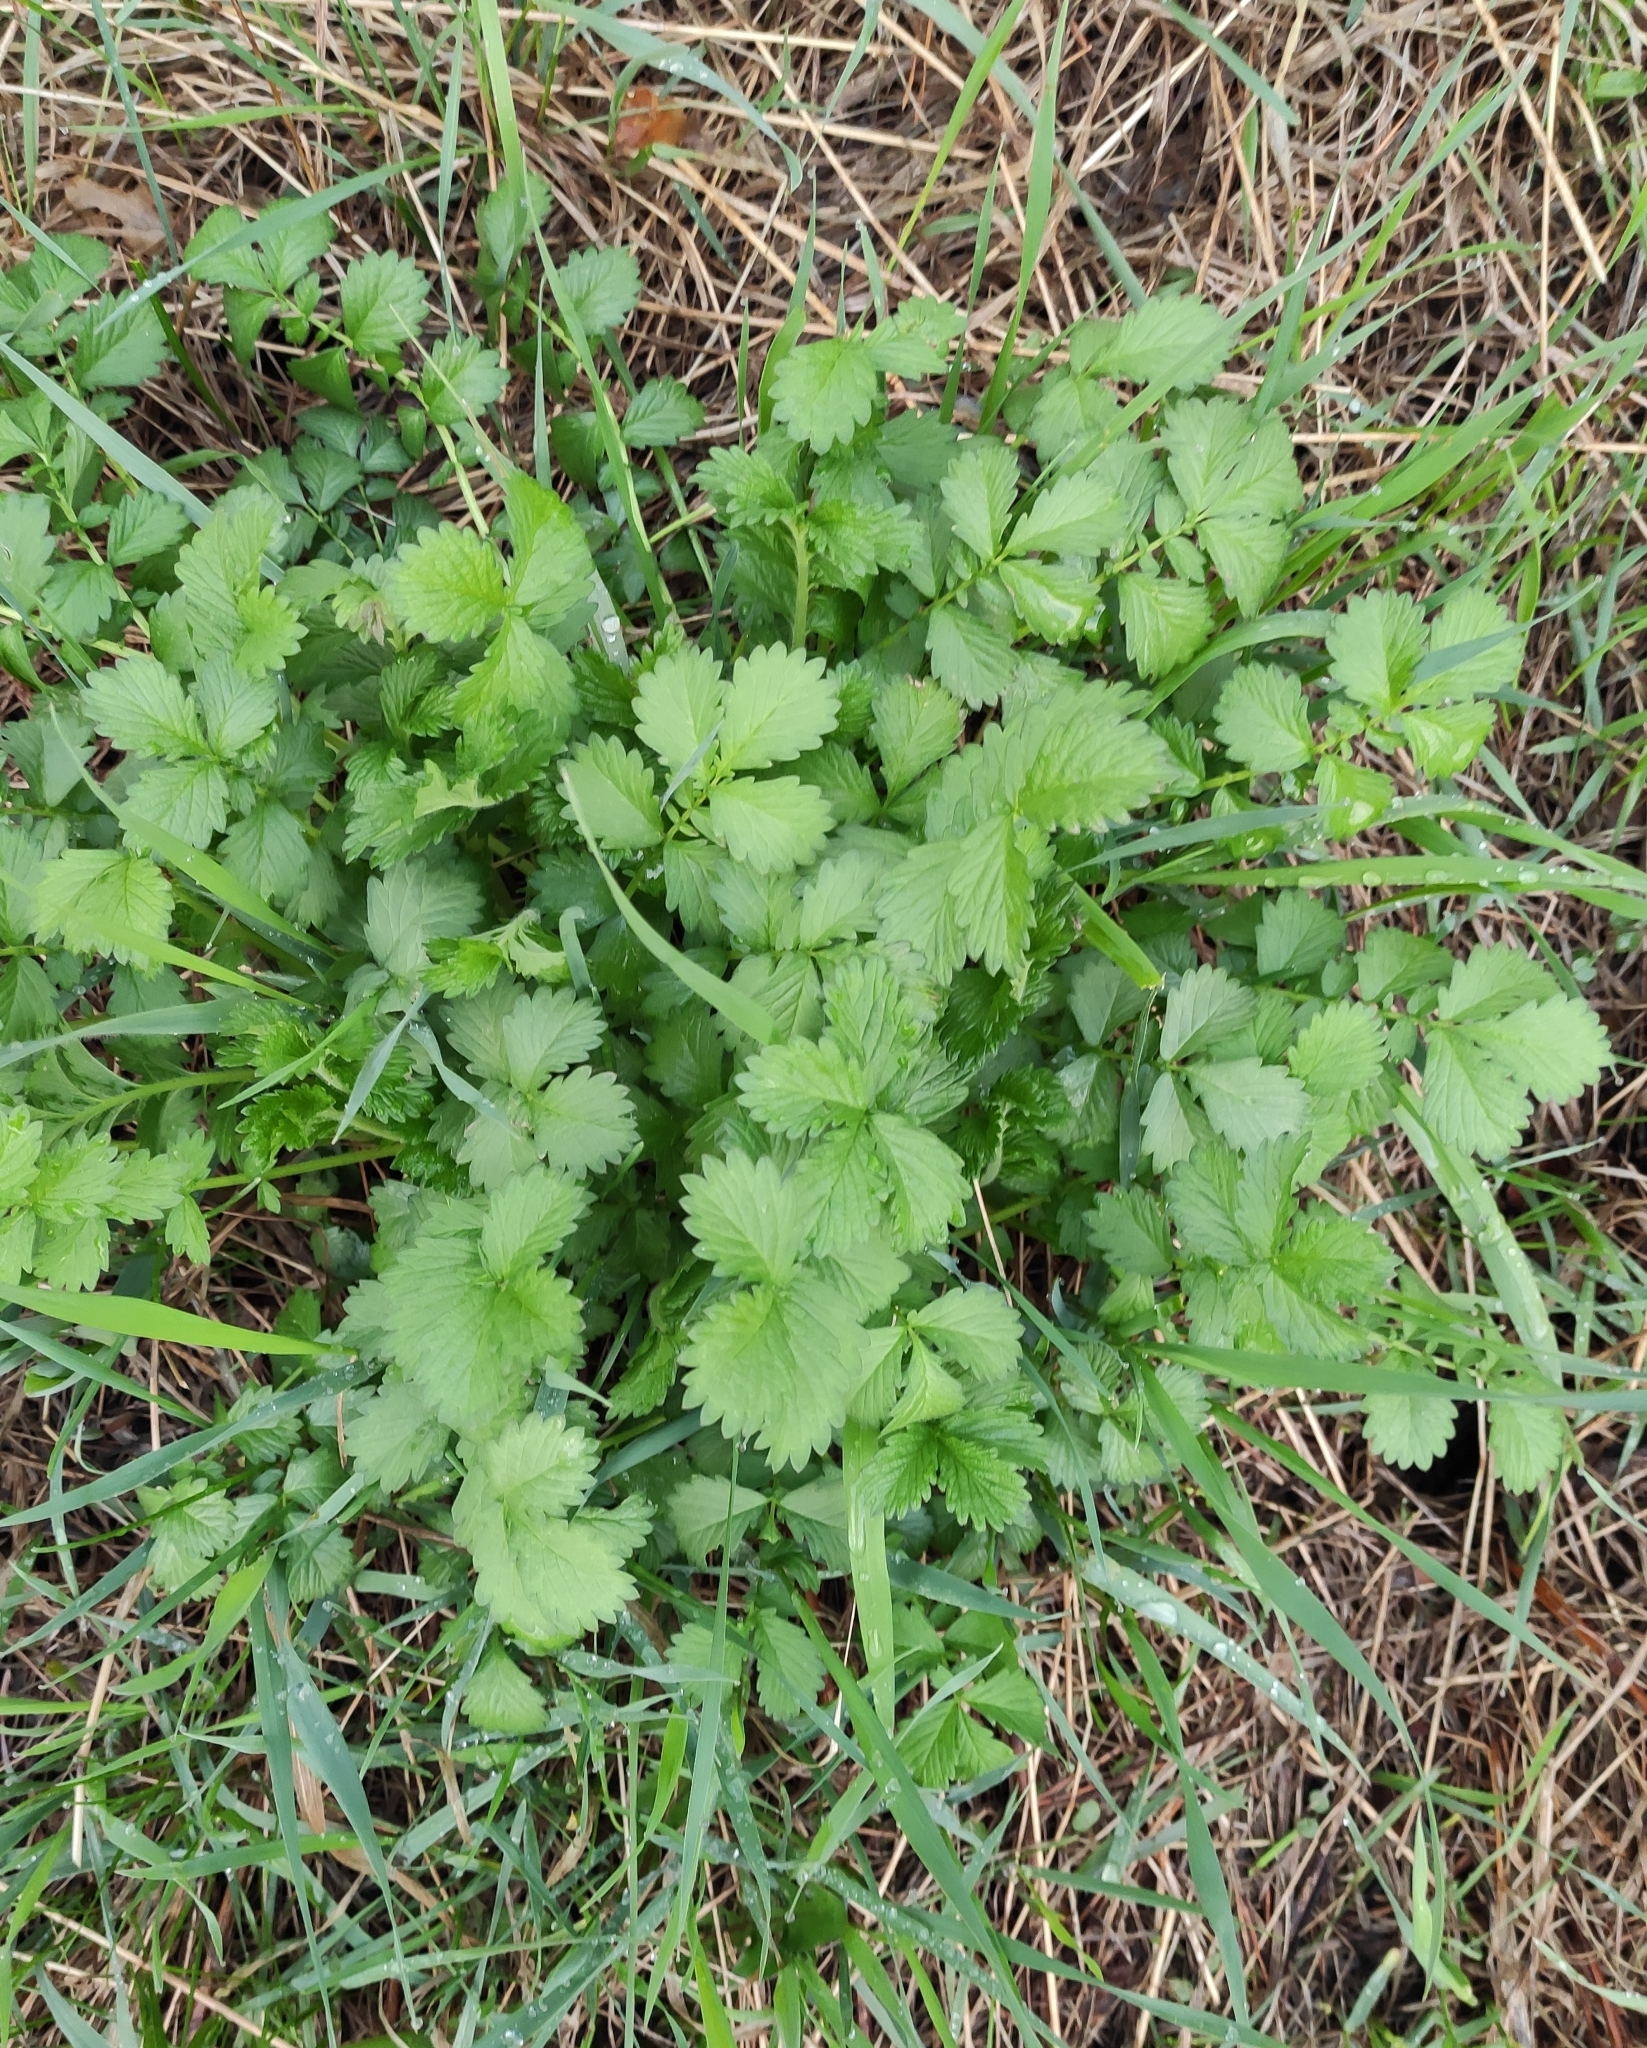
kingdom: Plantae
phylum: Tracheophyta
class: Magnoliopsida
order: Rosales
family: Rosaceae
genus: Agrimonia
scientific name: Agrimonia pilosa
